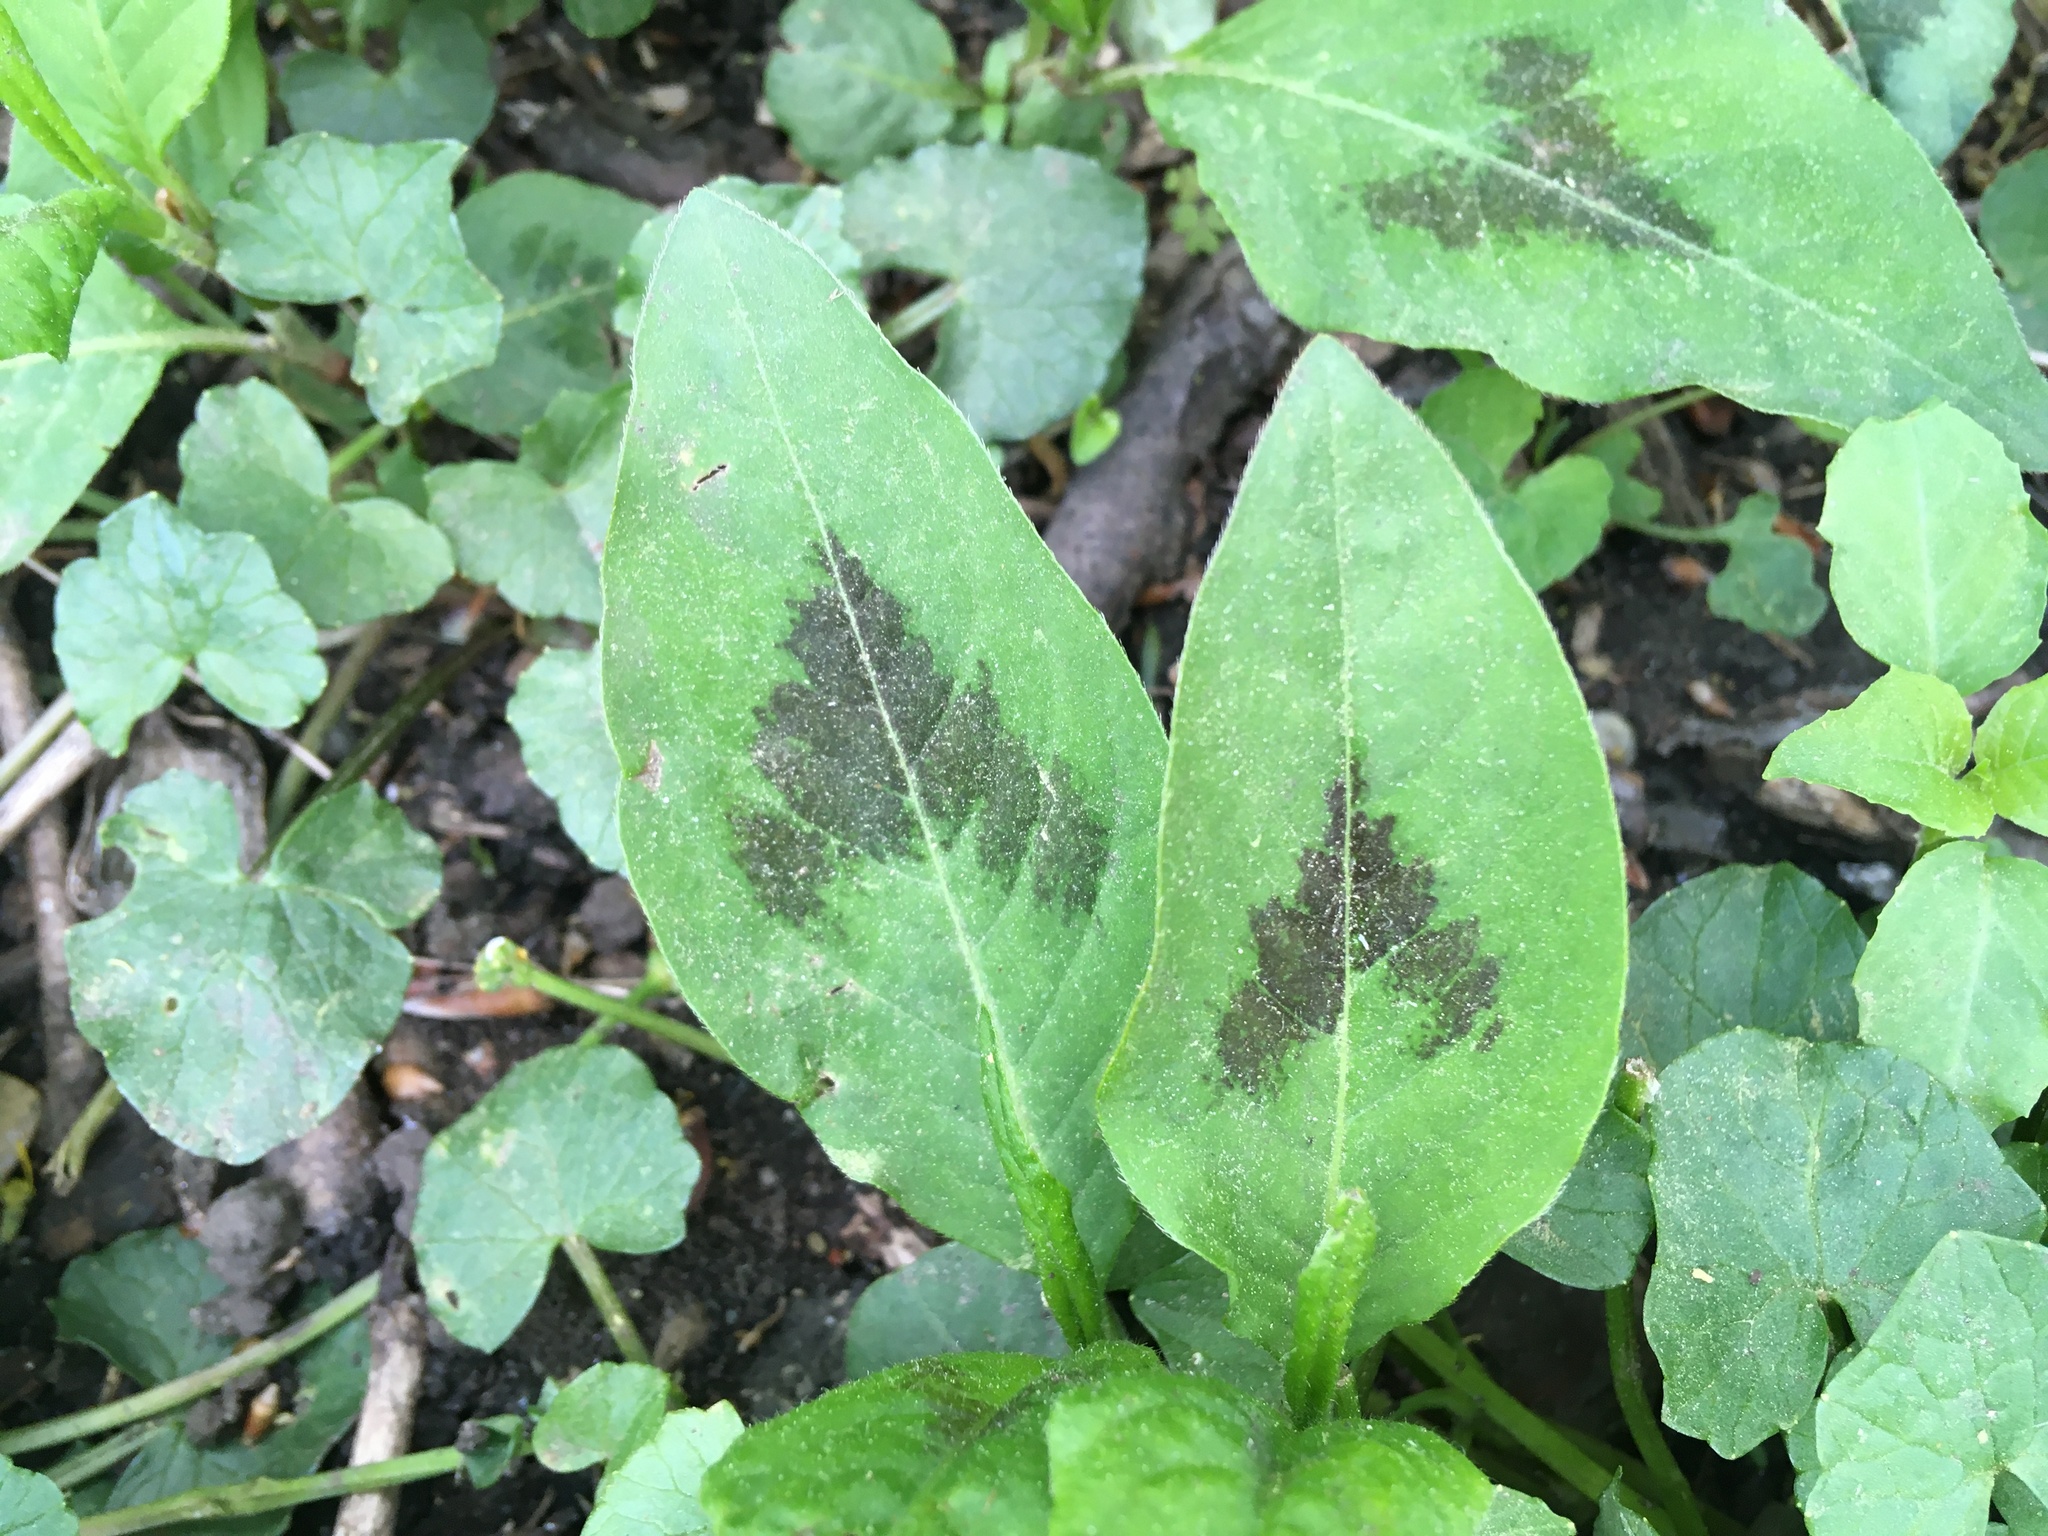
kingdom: Plantae
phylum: Tracheophyta
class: Magnoliopsida
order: Caryophyllales
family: Polygonaceae
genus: Persicaria
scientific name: Persicaria virginiana
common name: Jumpseed
